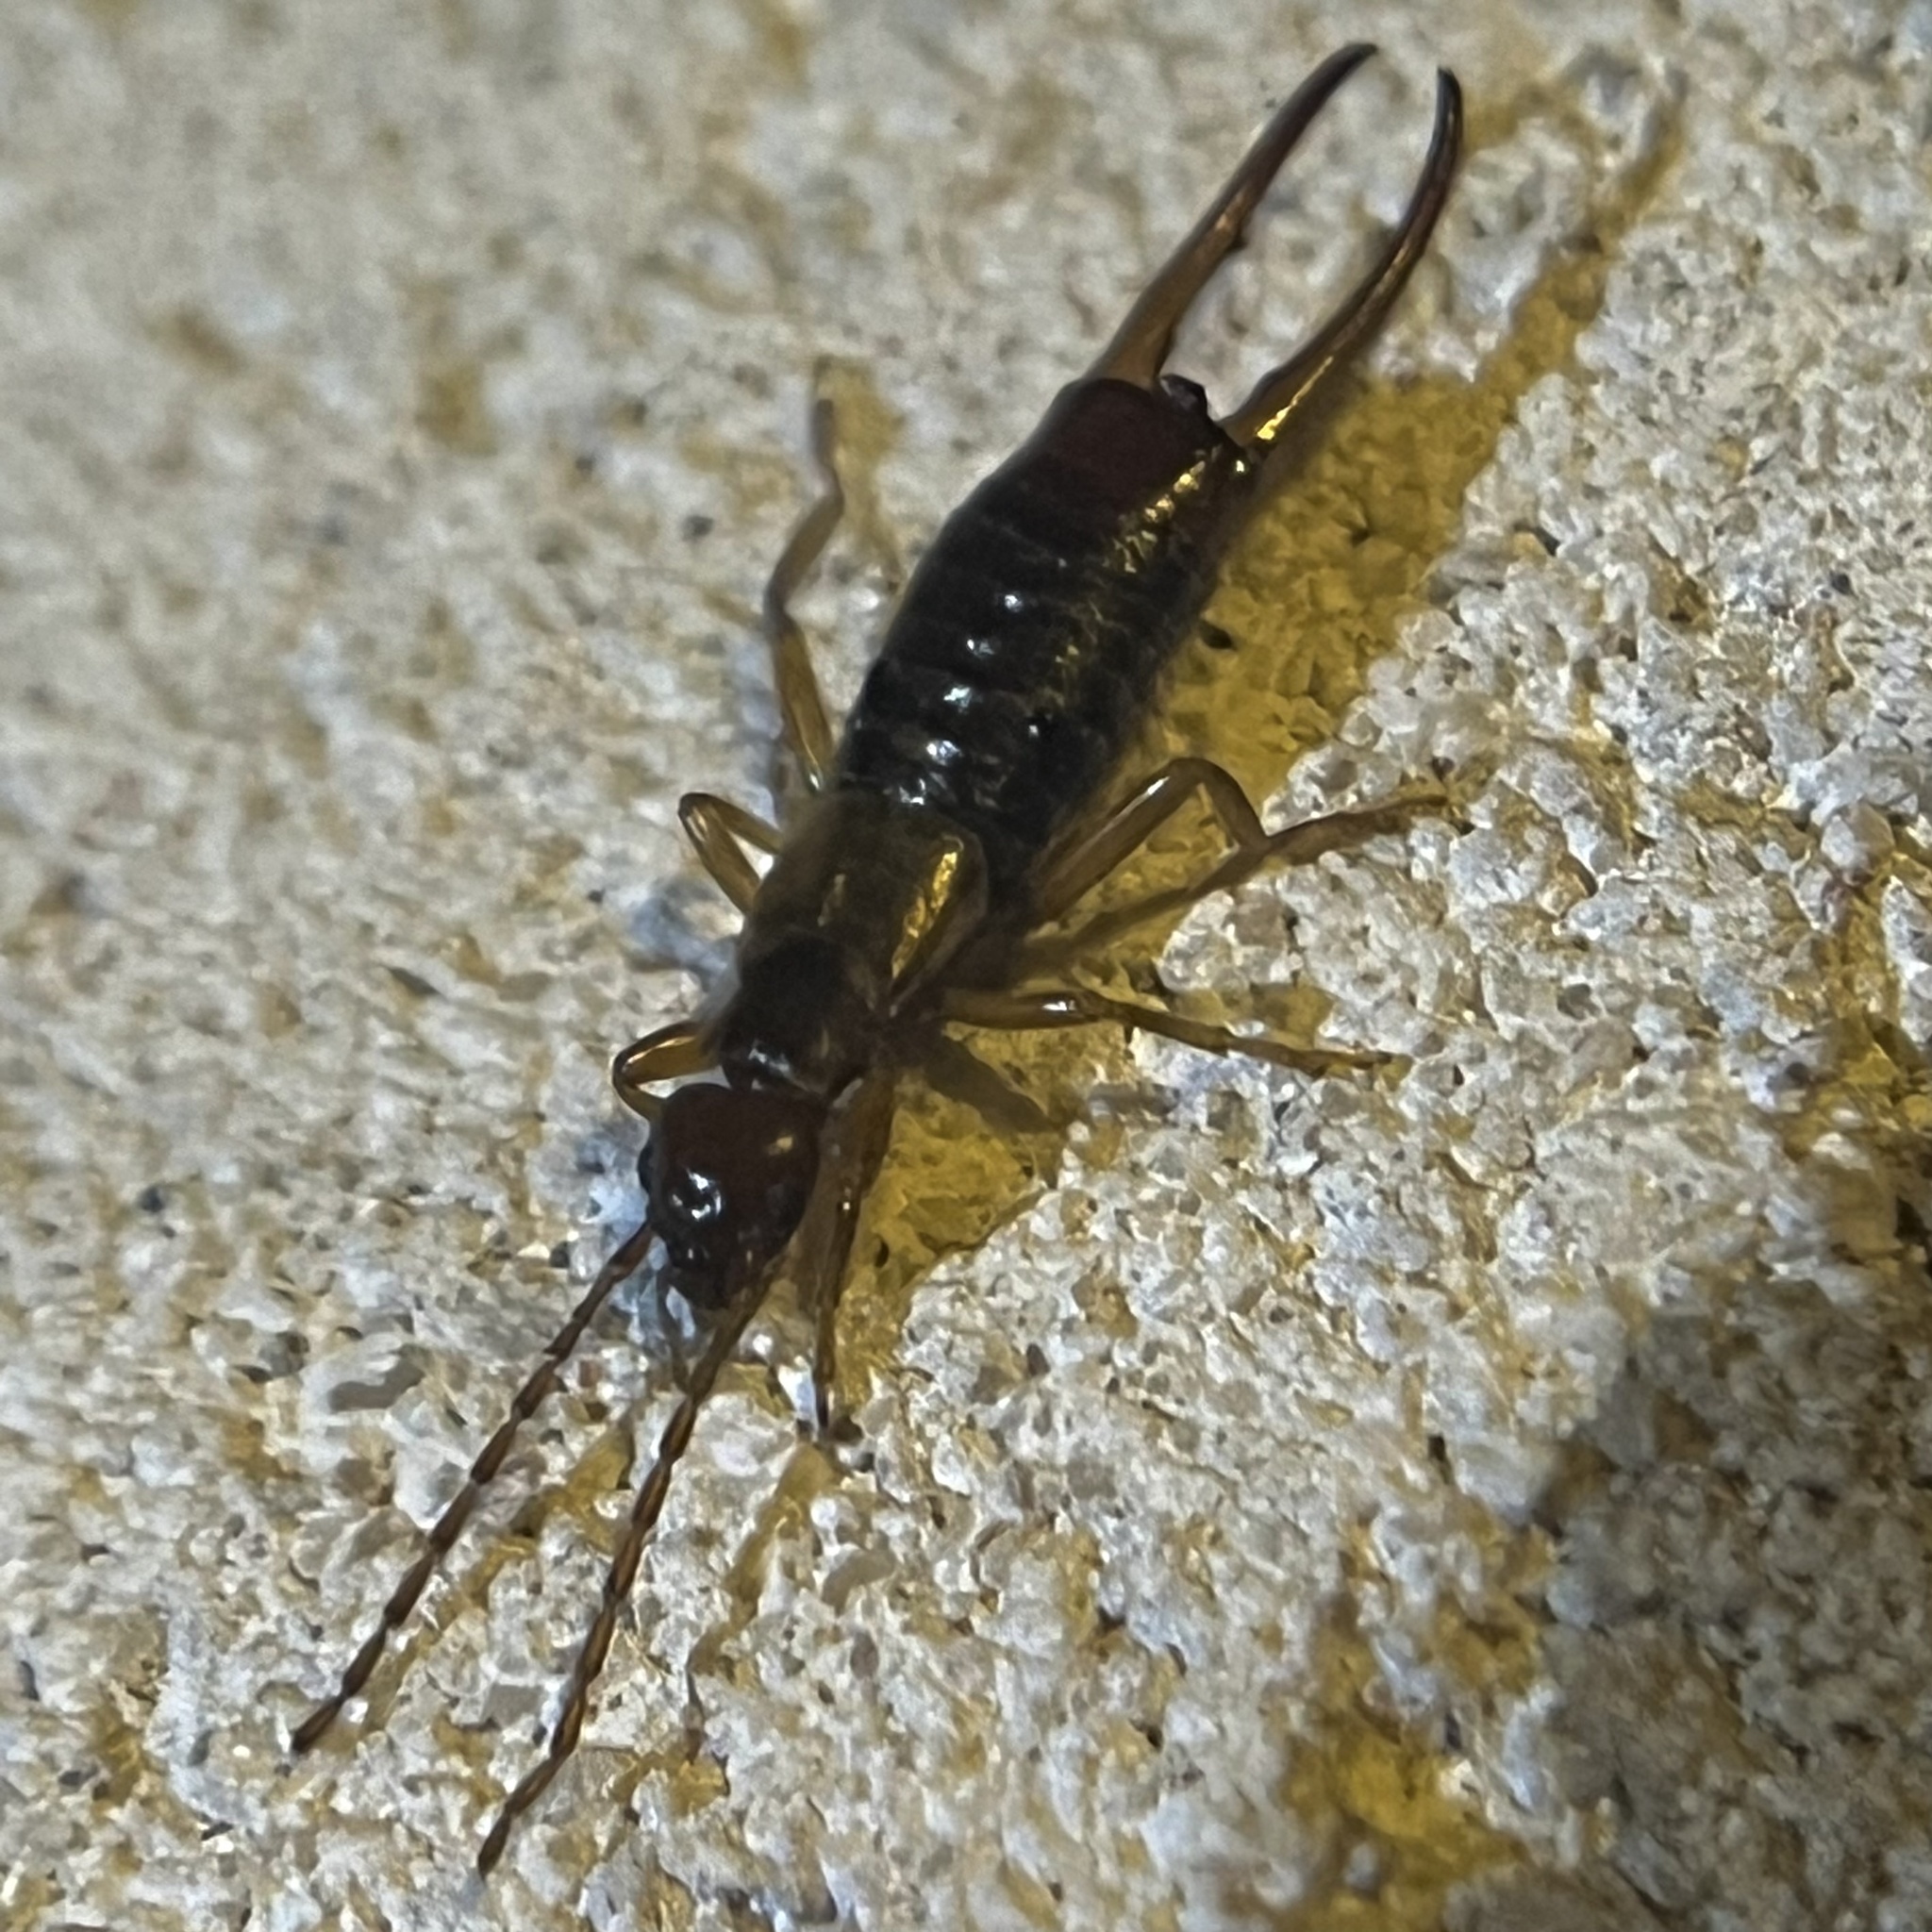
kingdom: Animalia
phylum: Arthropoda
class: Insecta
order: Dermaptera
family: Forficulidae
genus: Apterygida
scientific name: Apterygida albipennis
